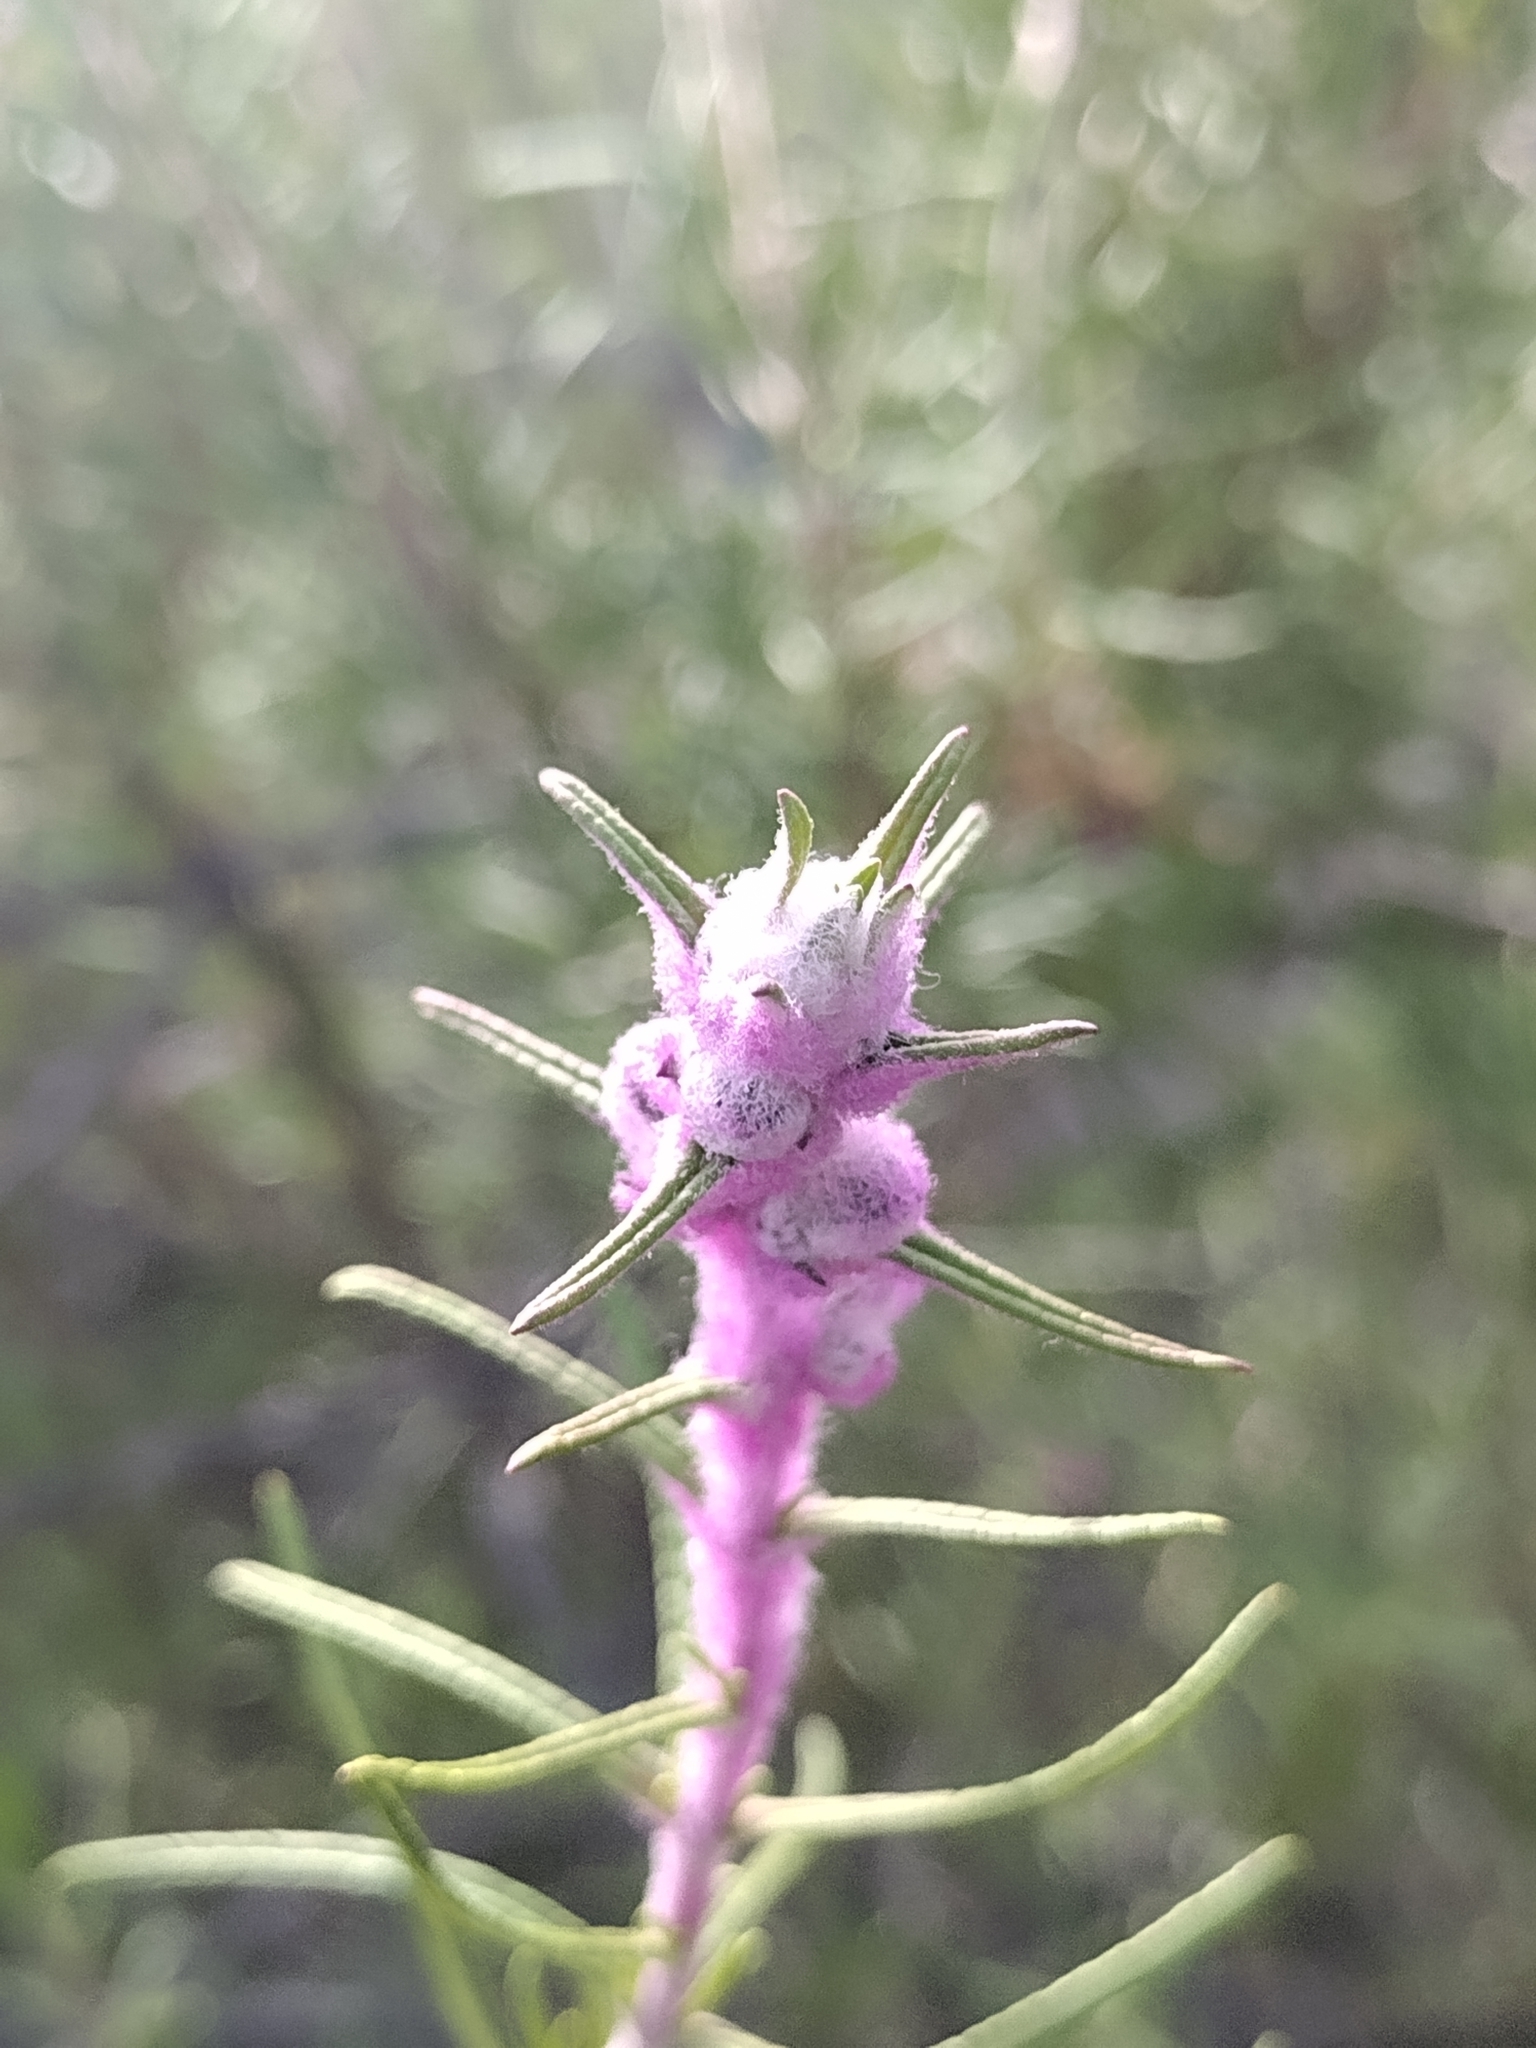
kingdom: Plantae
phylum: Tracheophyta
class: Magnoliopsida
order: Lamiales
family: Lamiaceae
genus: Trichostema
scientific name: Trichostema lanatum
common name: Woolly bluecurls
